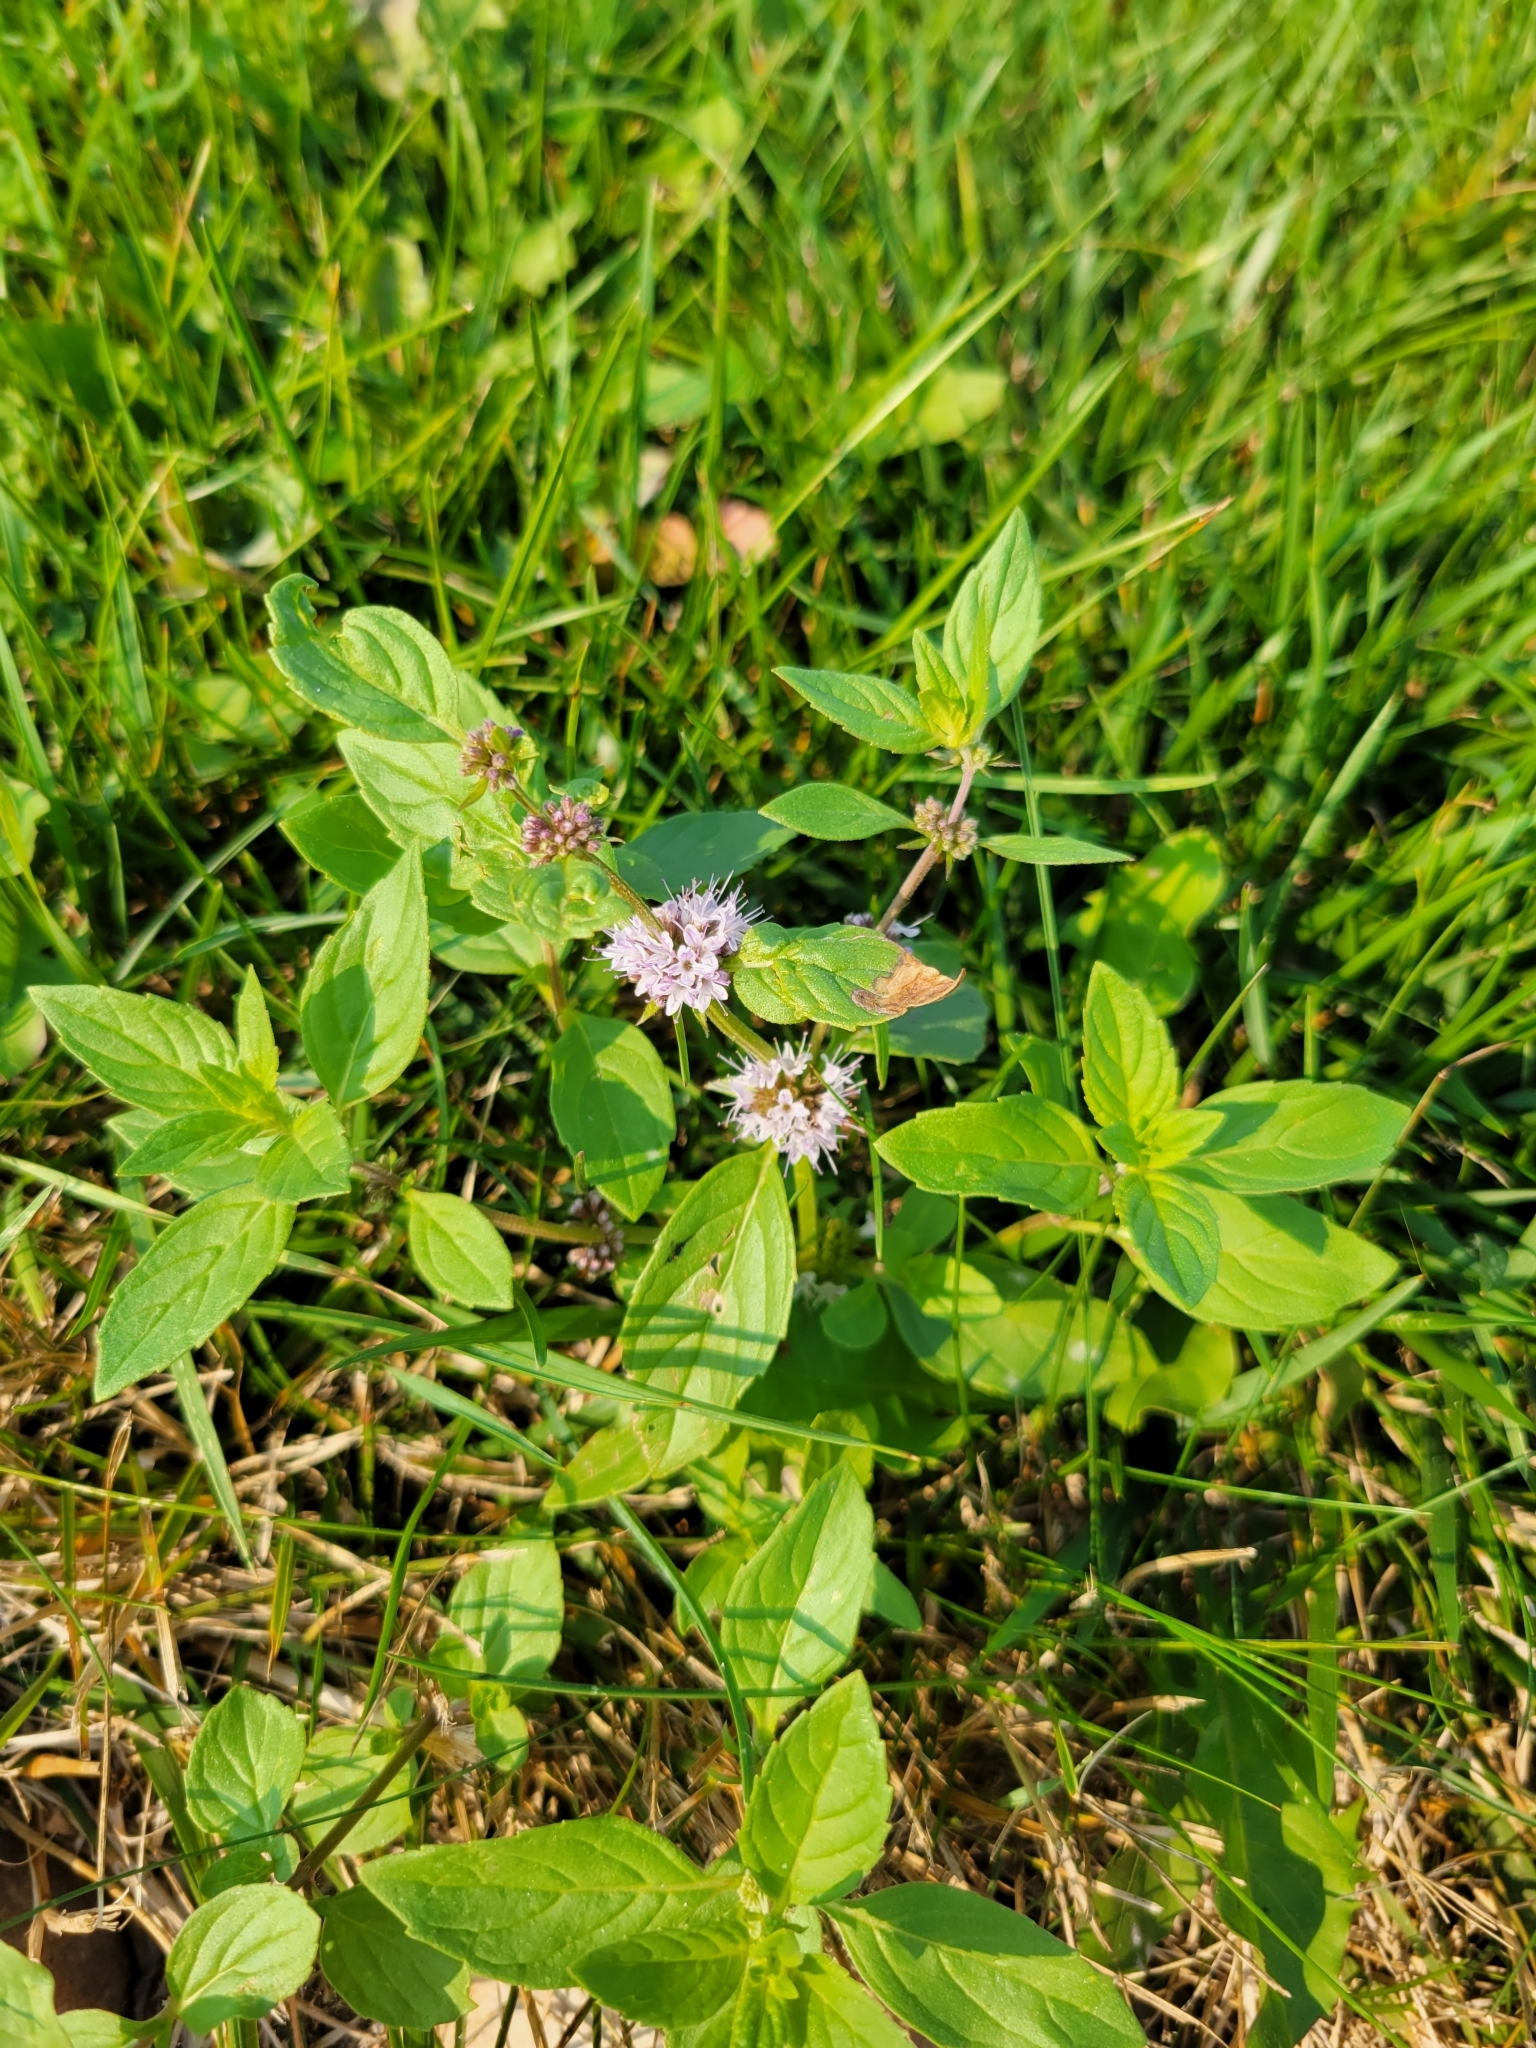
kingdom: Plantae
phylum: Tracheophyta
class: Magnoliopsida
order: Lamiales
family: Lamiaceae
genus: Mentha
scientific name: Mentha canadensis
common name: American corn mint
